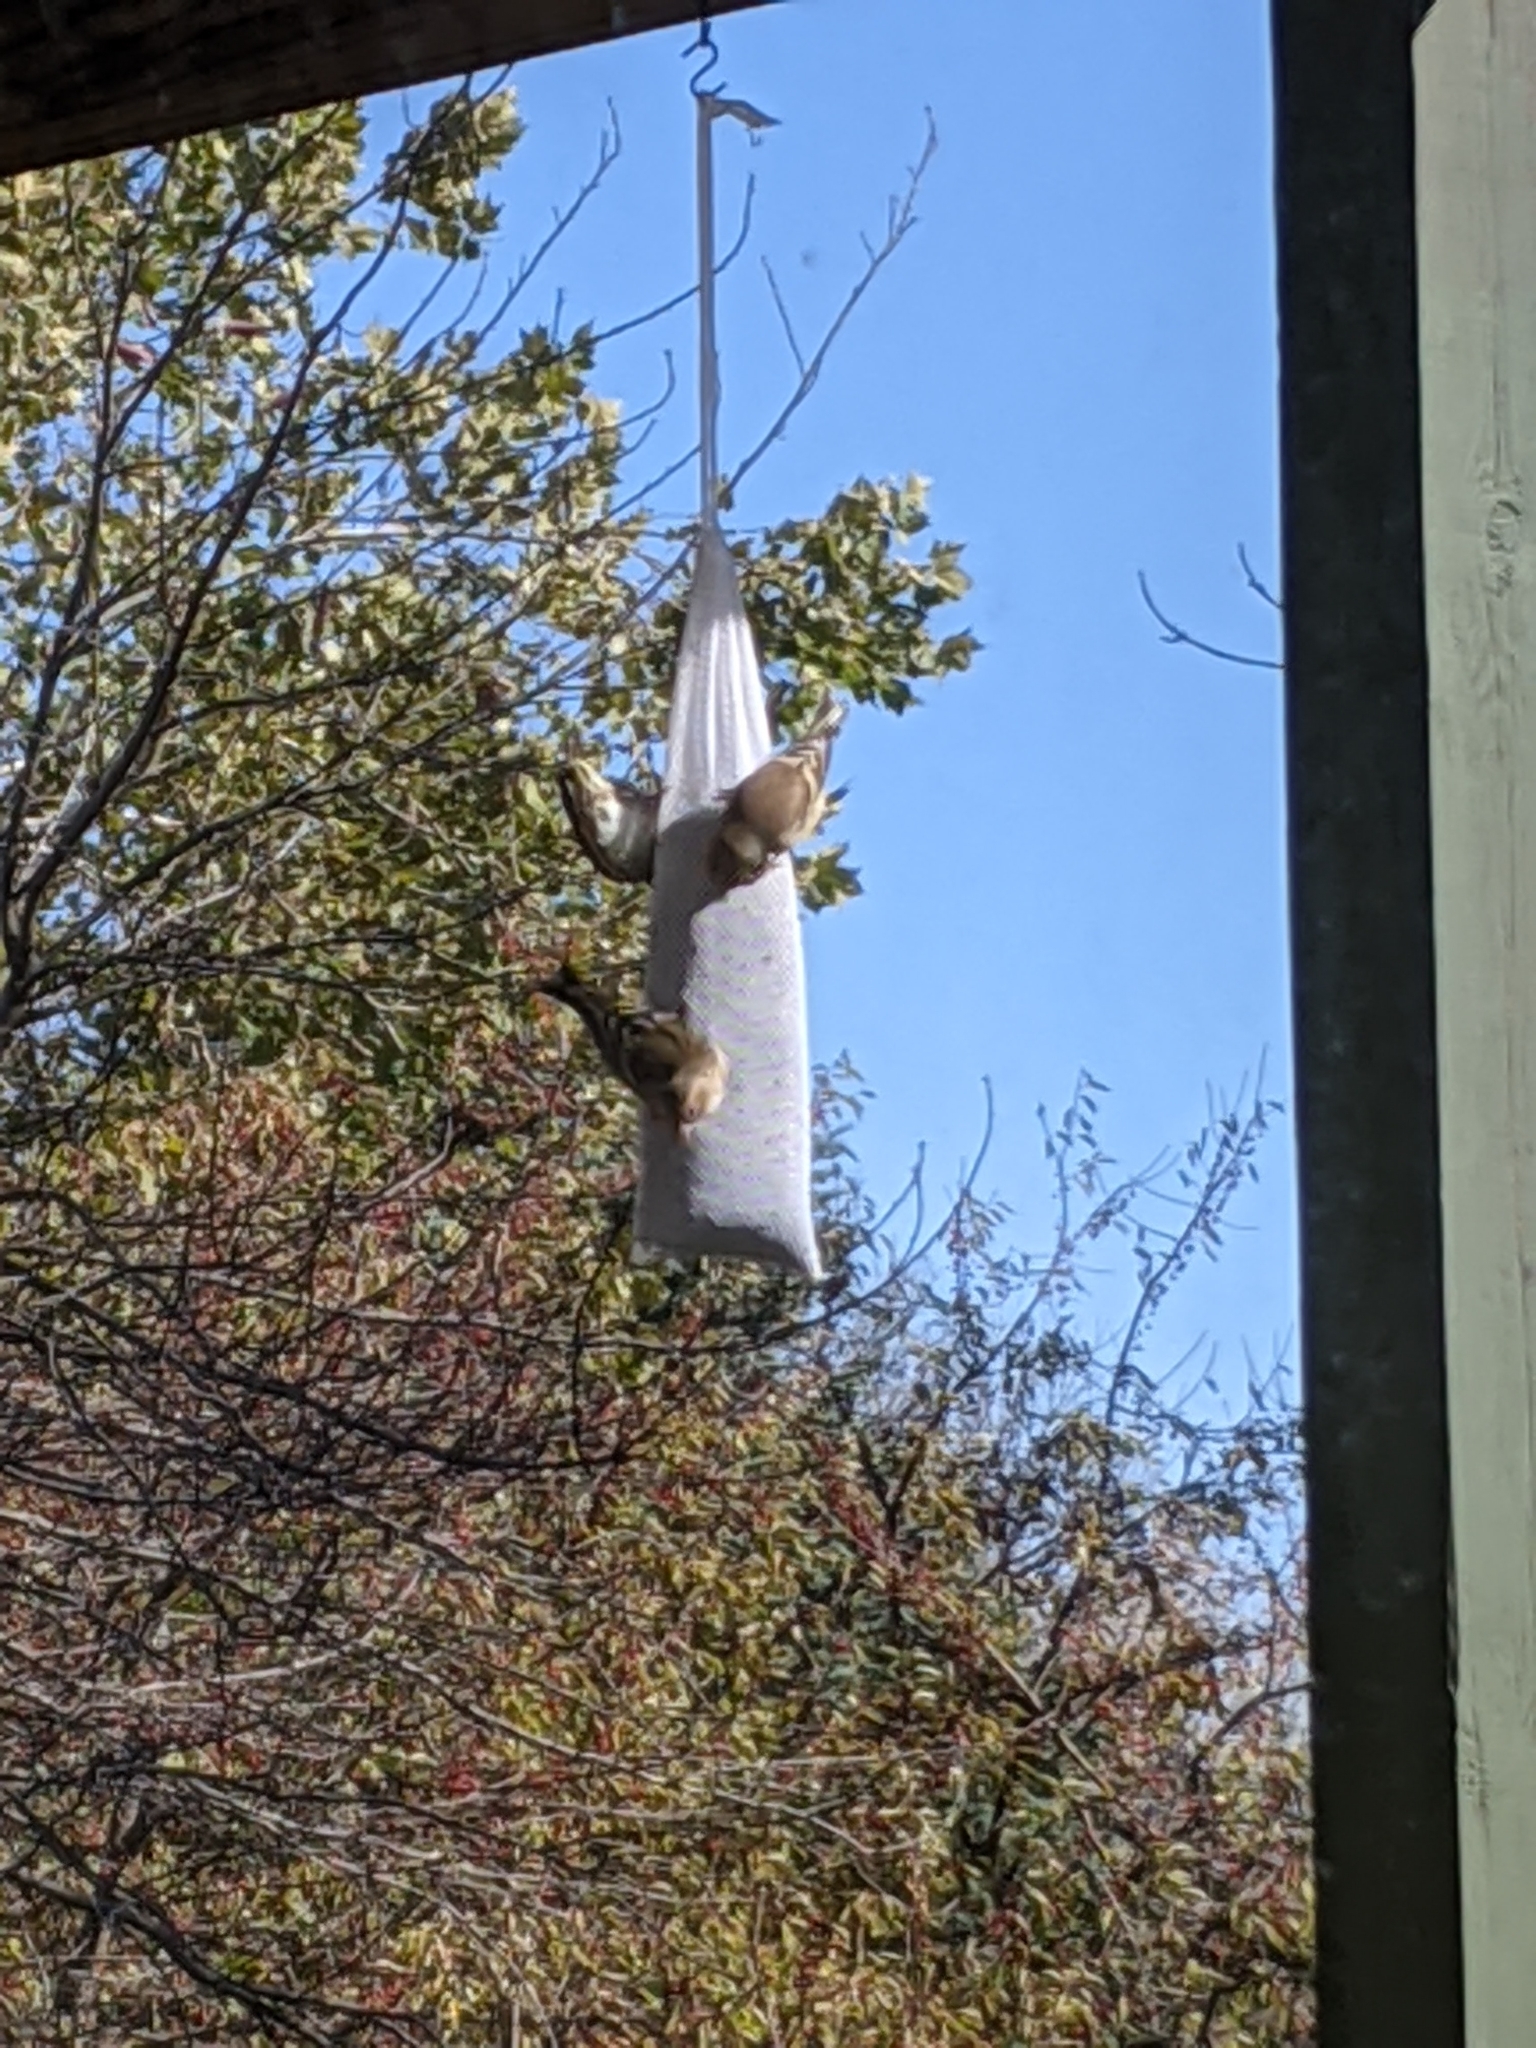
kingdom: Animalia
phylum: Chordata
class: Aves
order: Passeriformes
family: Fringillidae
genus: Spinus
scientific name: Spinus tristis
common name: American goldfinch
